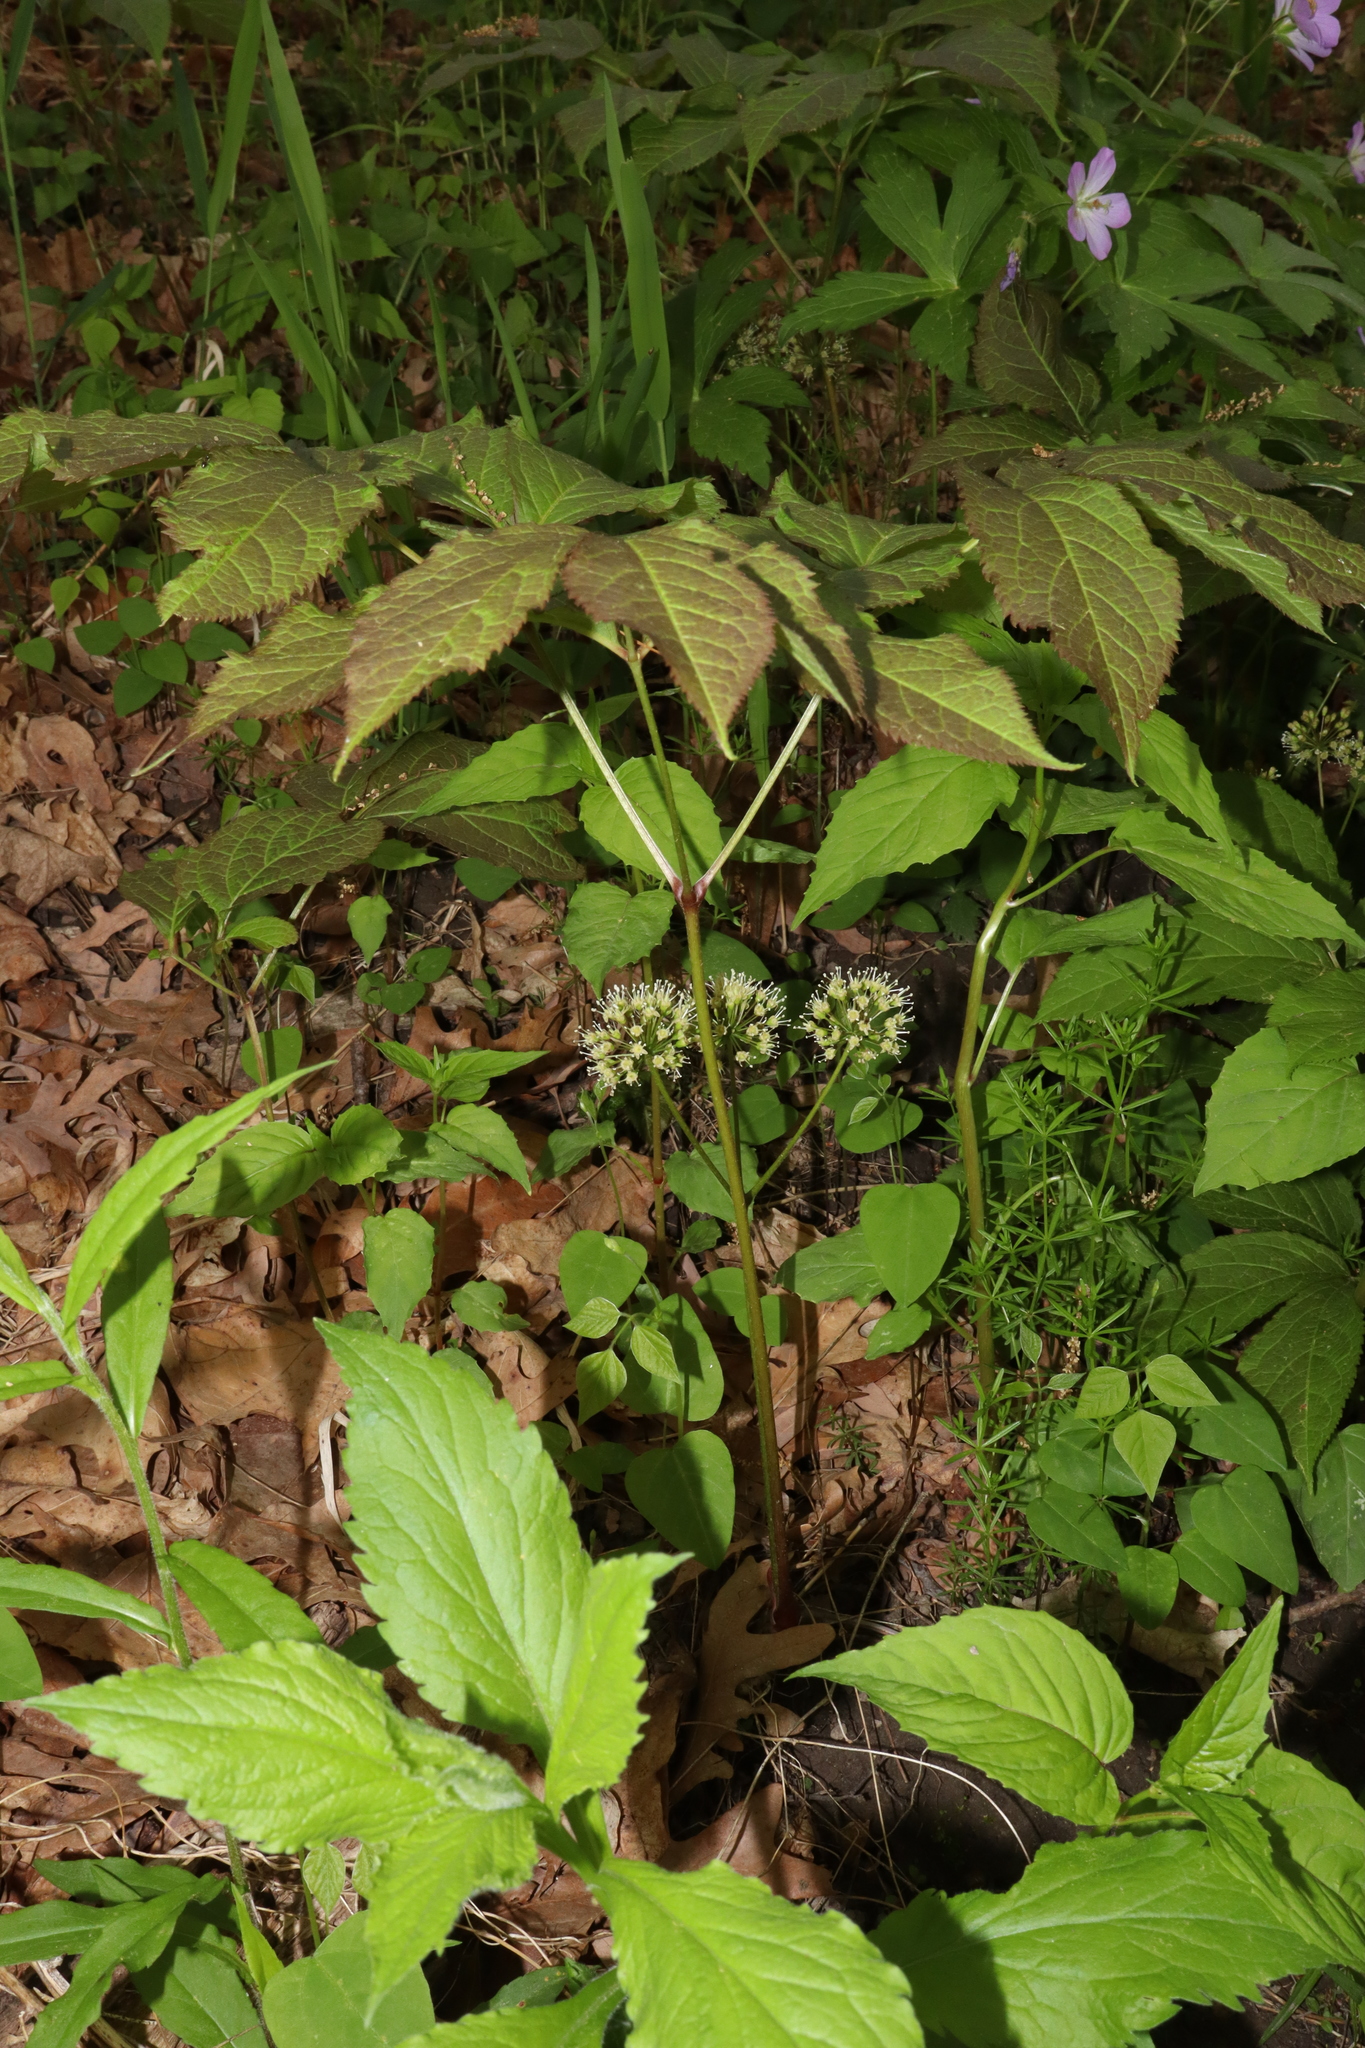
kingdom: Plantae
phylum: Tracheophyta
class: Magnoliopsida
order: Apiales
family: Araliaceae
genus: Aralia
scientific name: Aralia nudicaulis
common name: Wild sarsaparilla
